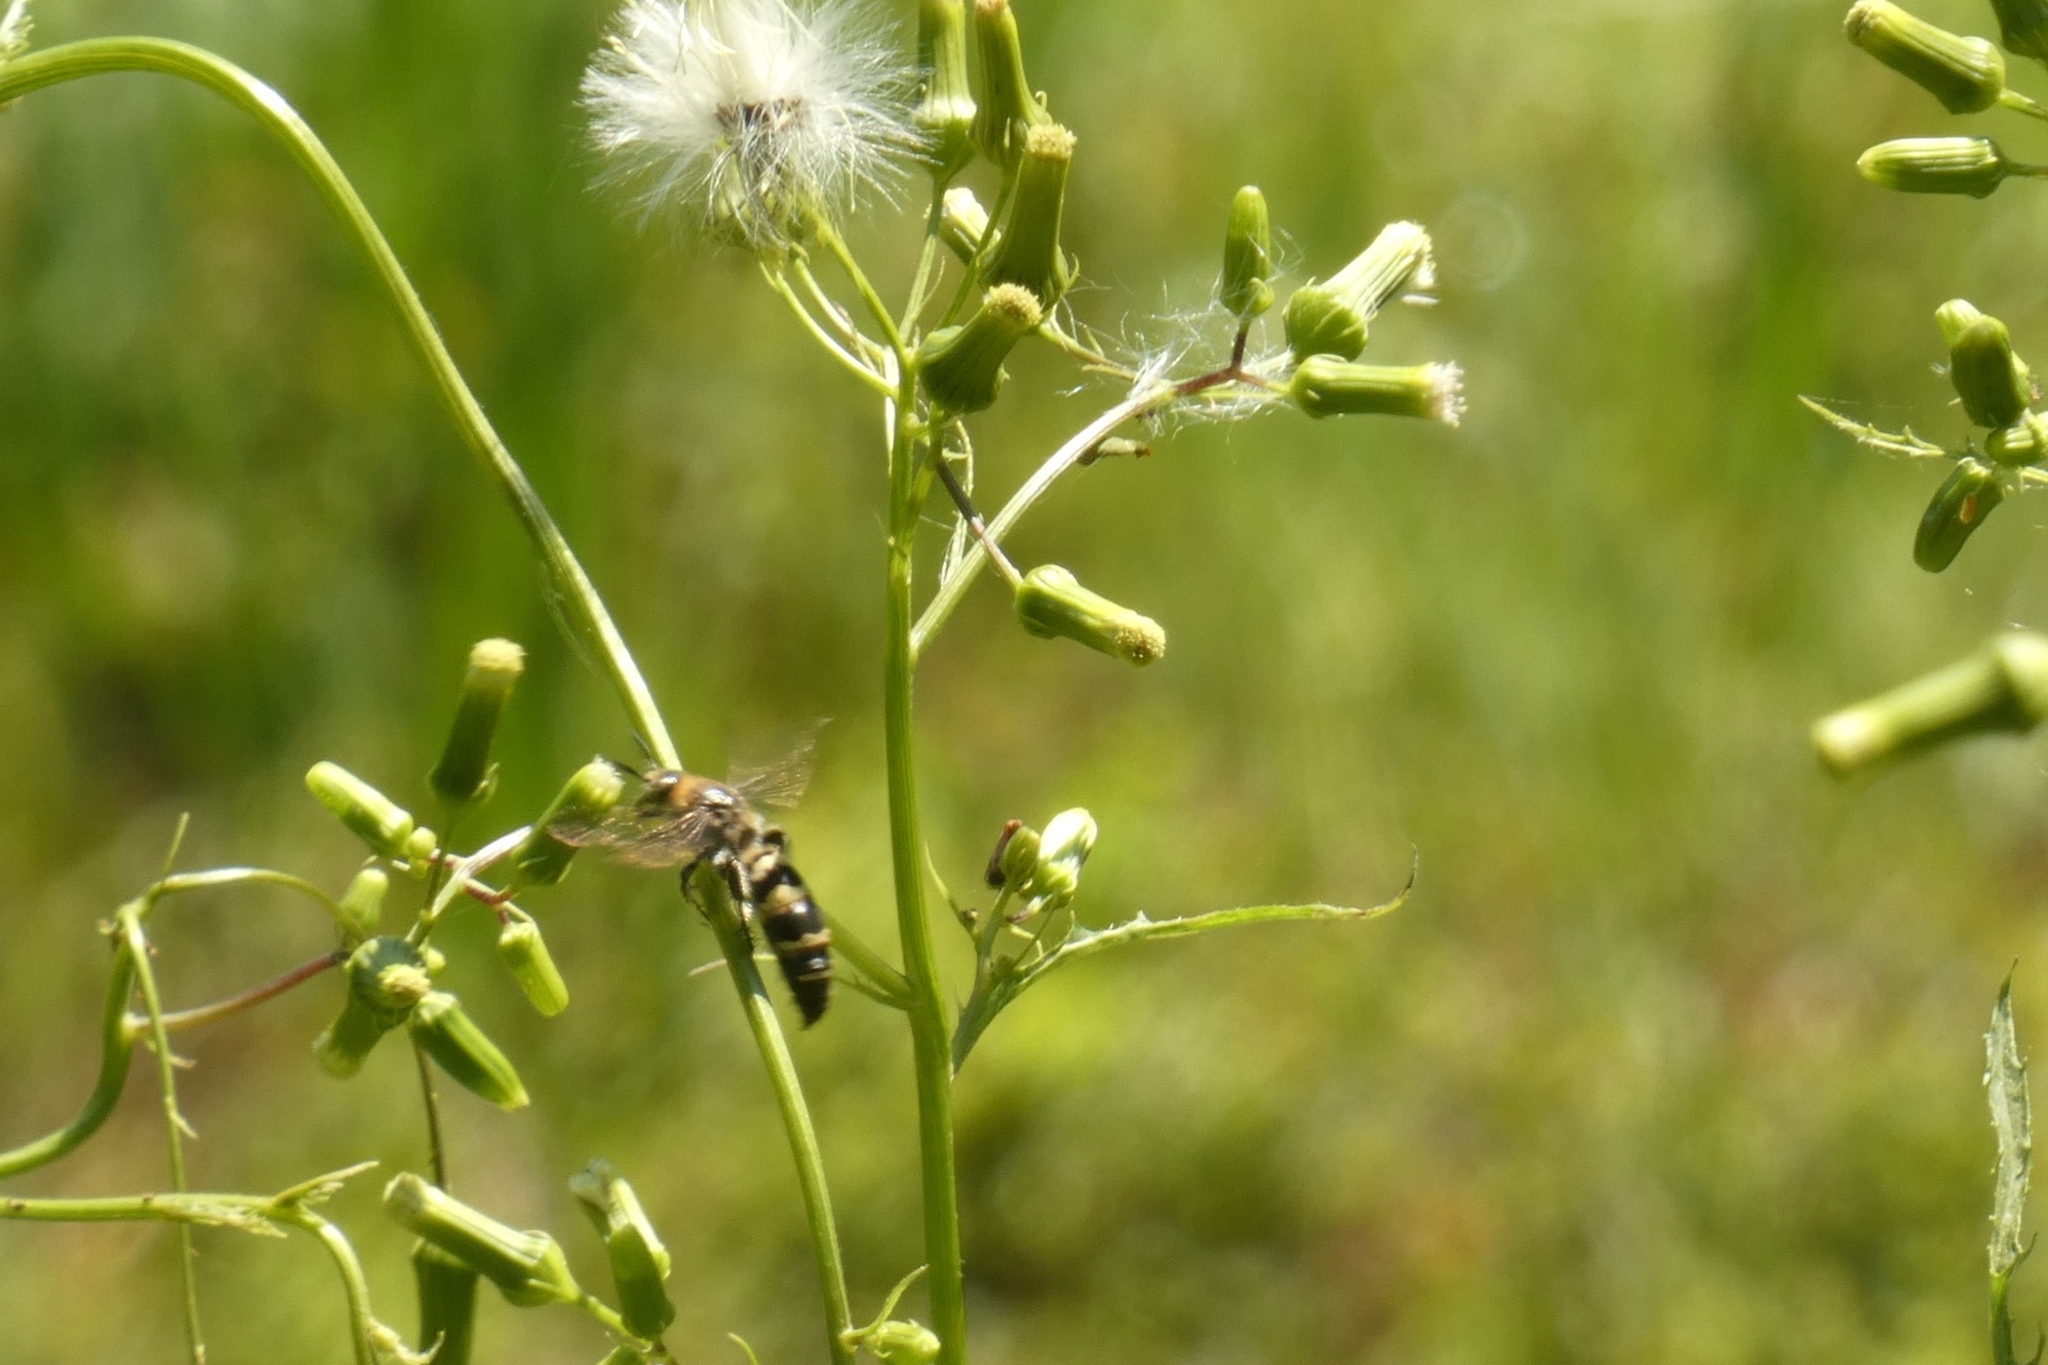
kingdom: Animalia
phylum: Arthropoda
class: Insecta
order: Hymenoptera
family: Scoliidae
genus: Dielis
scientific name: Dielis
